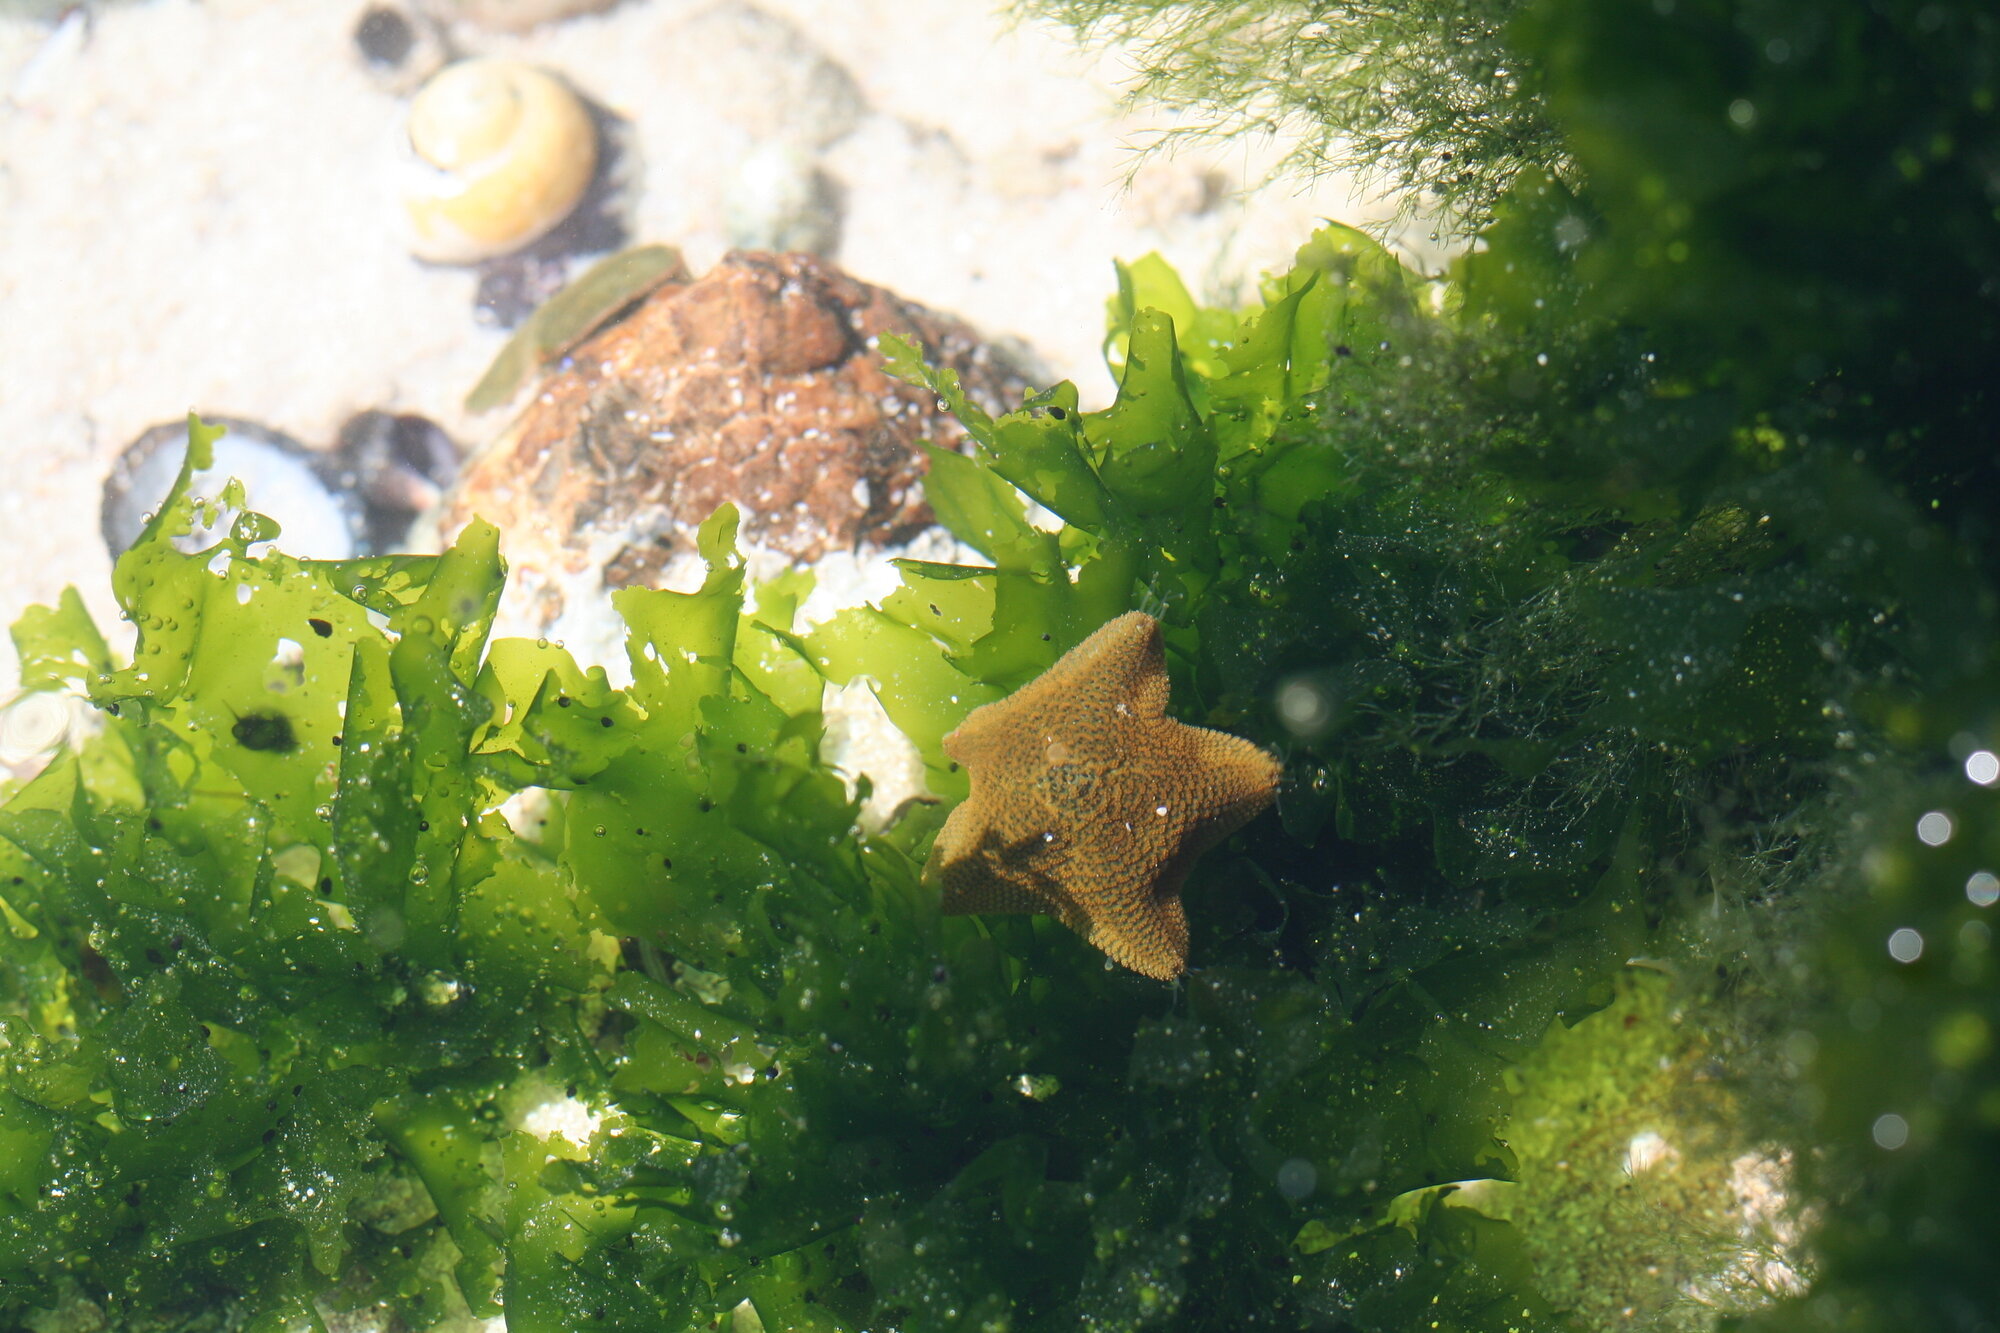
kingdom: Animalia
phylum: Echinodermata
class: Asteroidea
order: Valvatida
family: Asterinidae
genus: Parvulastra
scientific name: Parvulastra exigua
